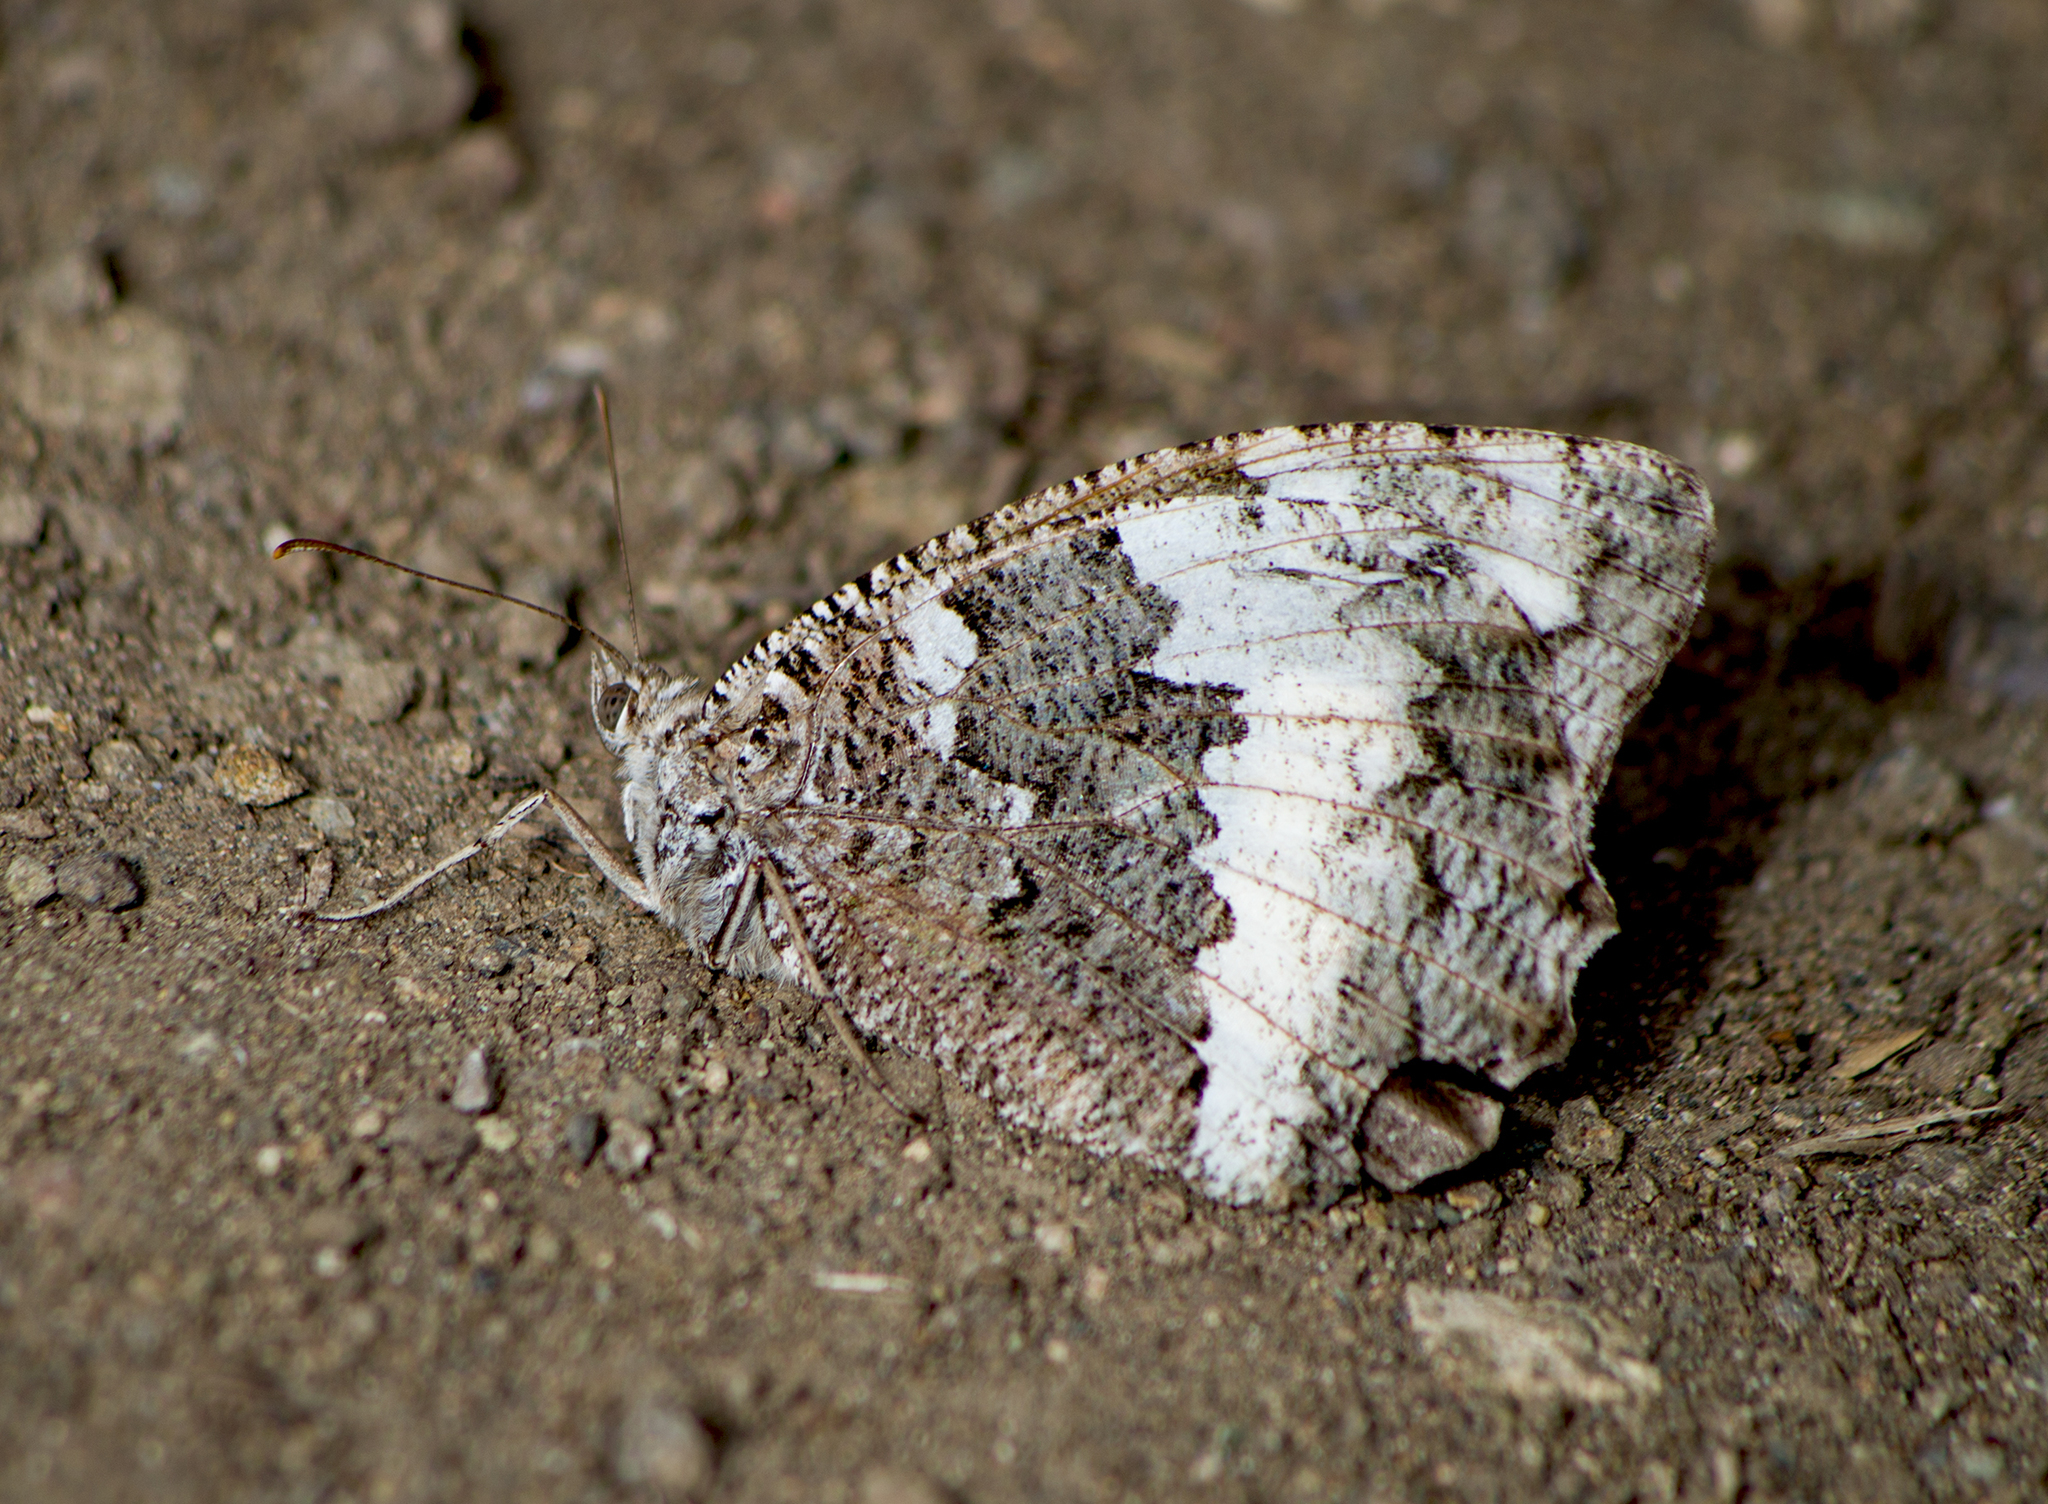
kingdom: Animalia
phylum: Arthropoda
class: Insecta
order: Lepidoptera
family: Lycaenidae
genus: Loweia
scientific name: Loweia tityrus
